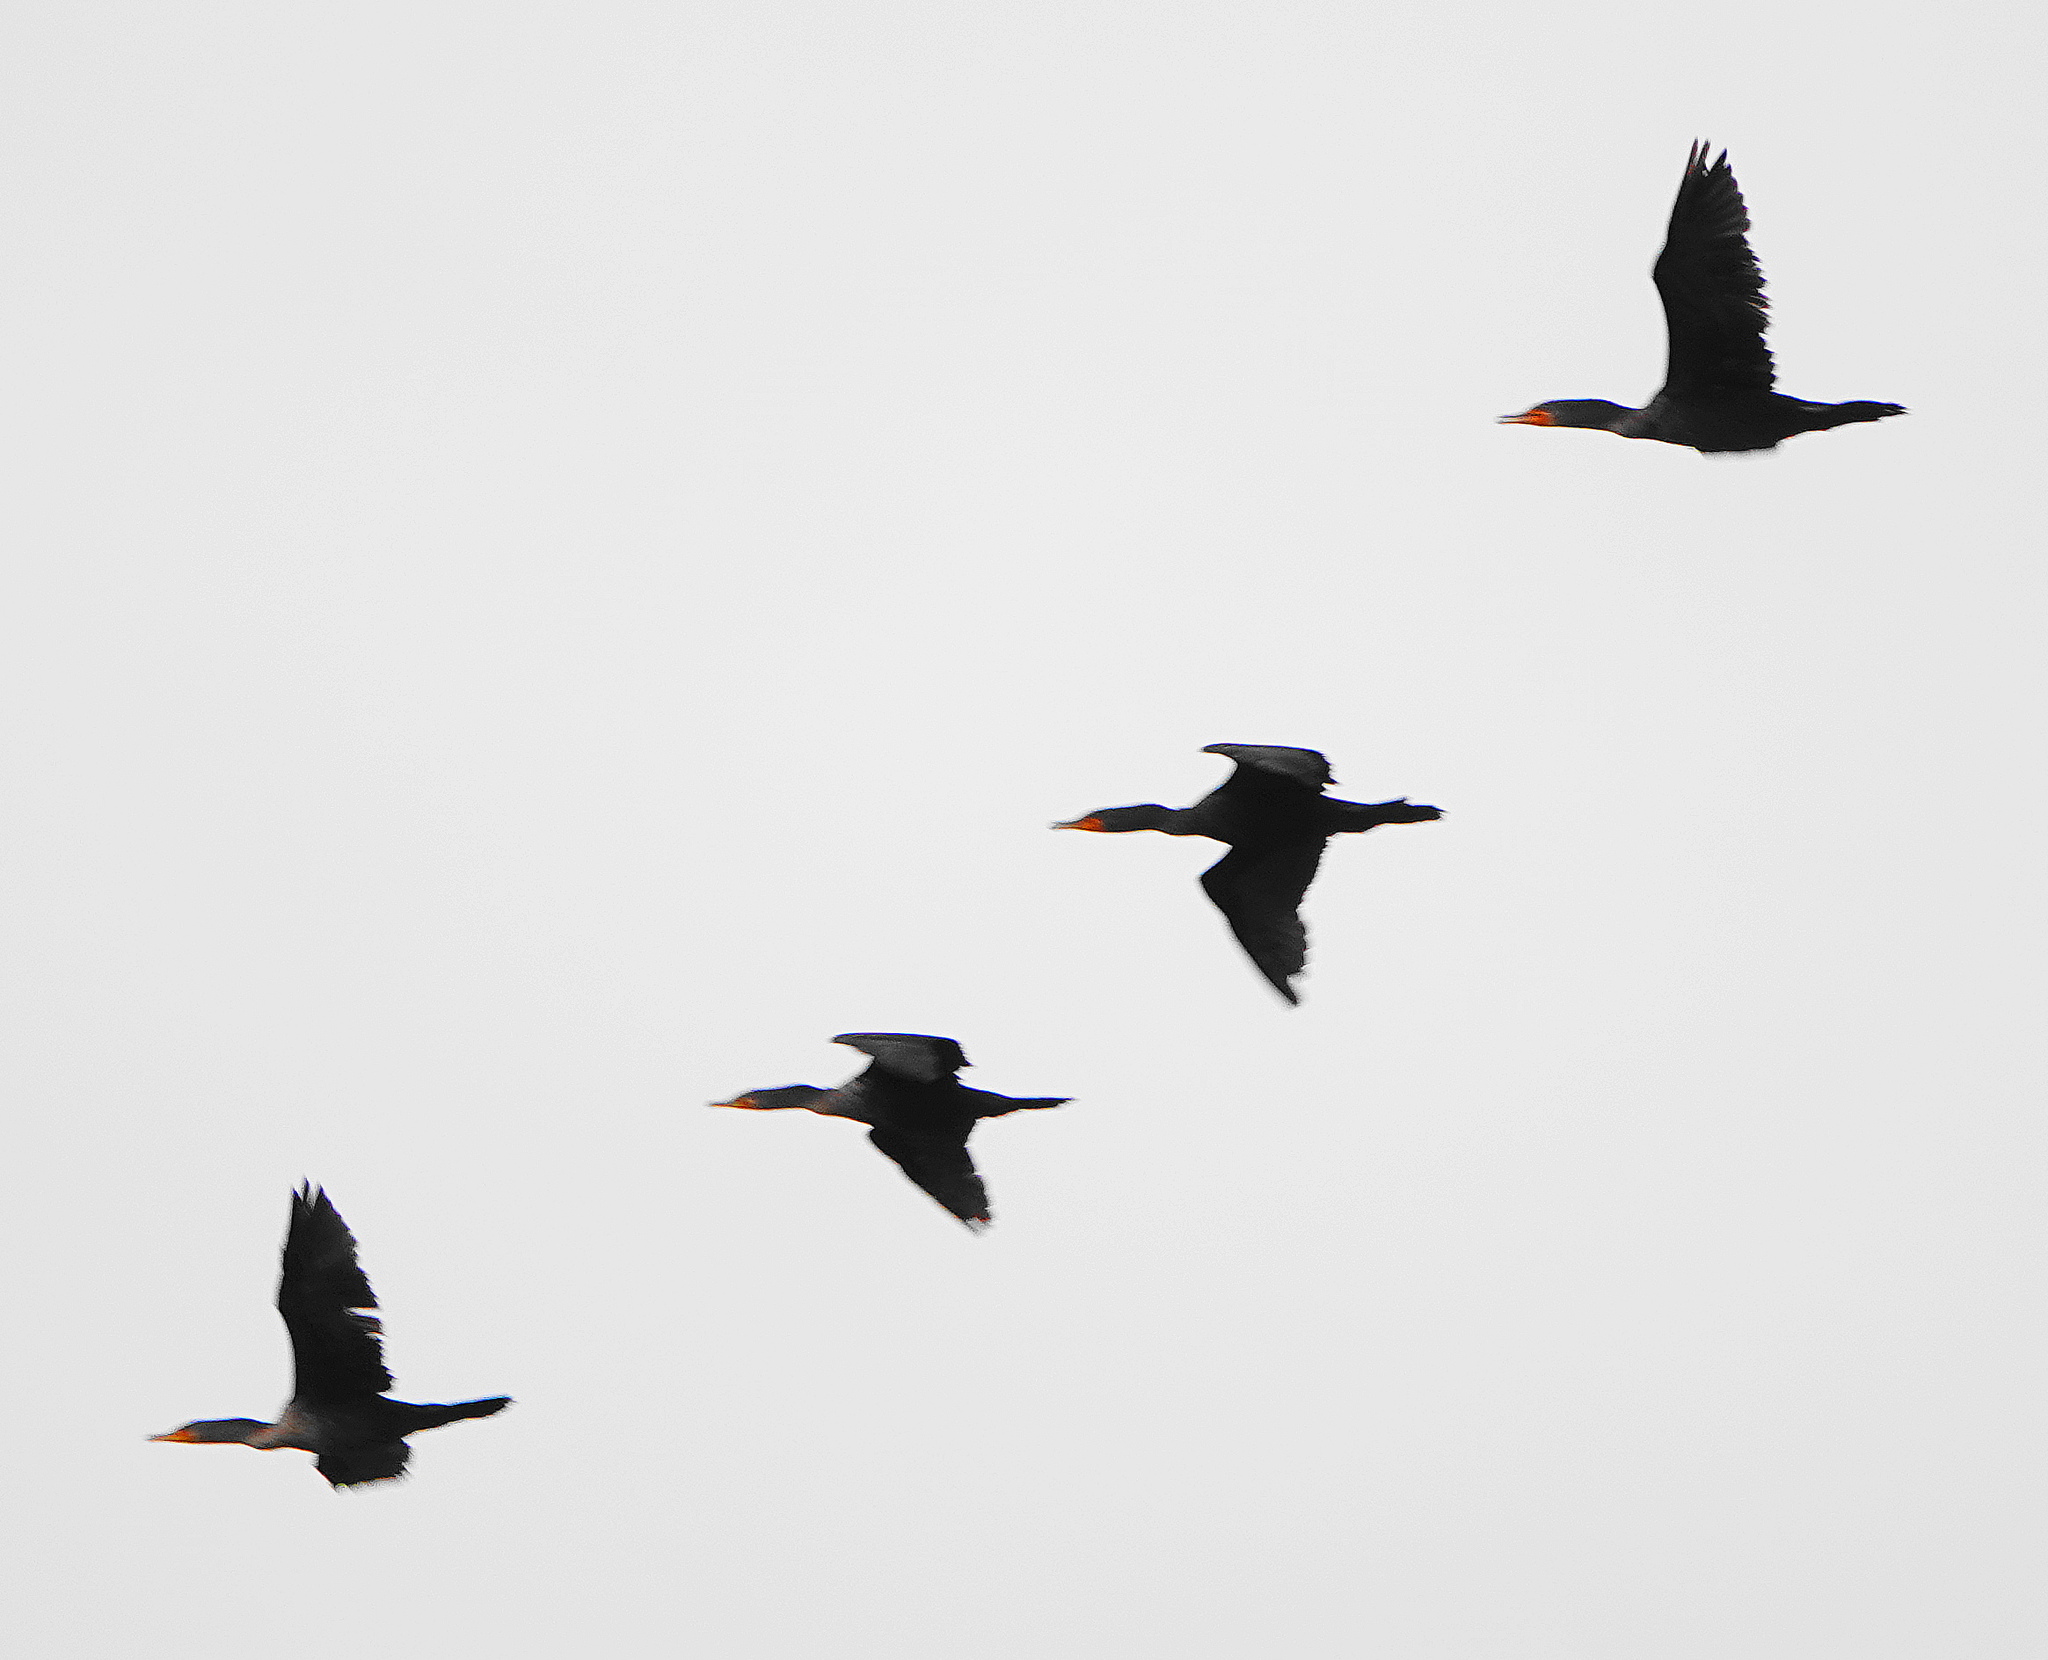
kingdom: Animalia
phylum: Chordata
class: Aves
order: Suliformes
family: Phalacrocoracidae
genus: Phalacrocorax
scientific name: Phalacrocorax auritus
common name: Double-crested cormorant
